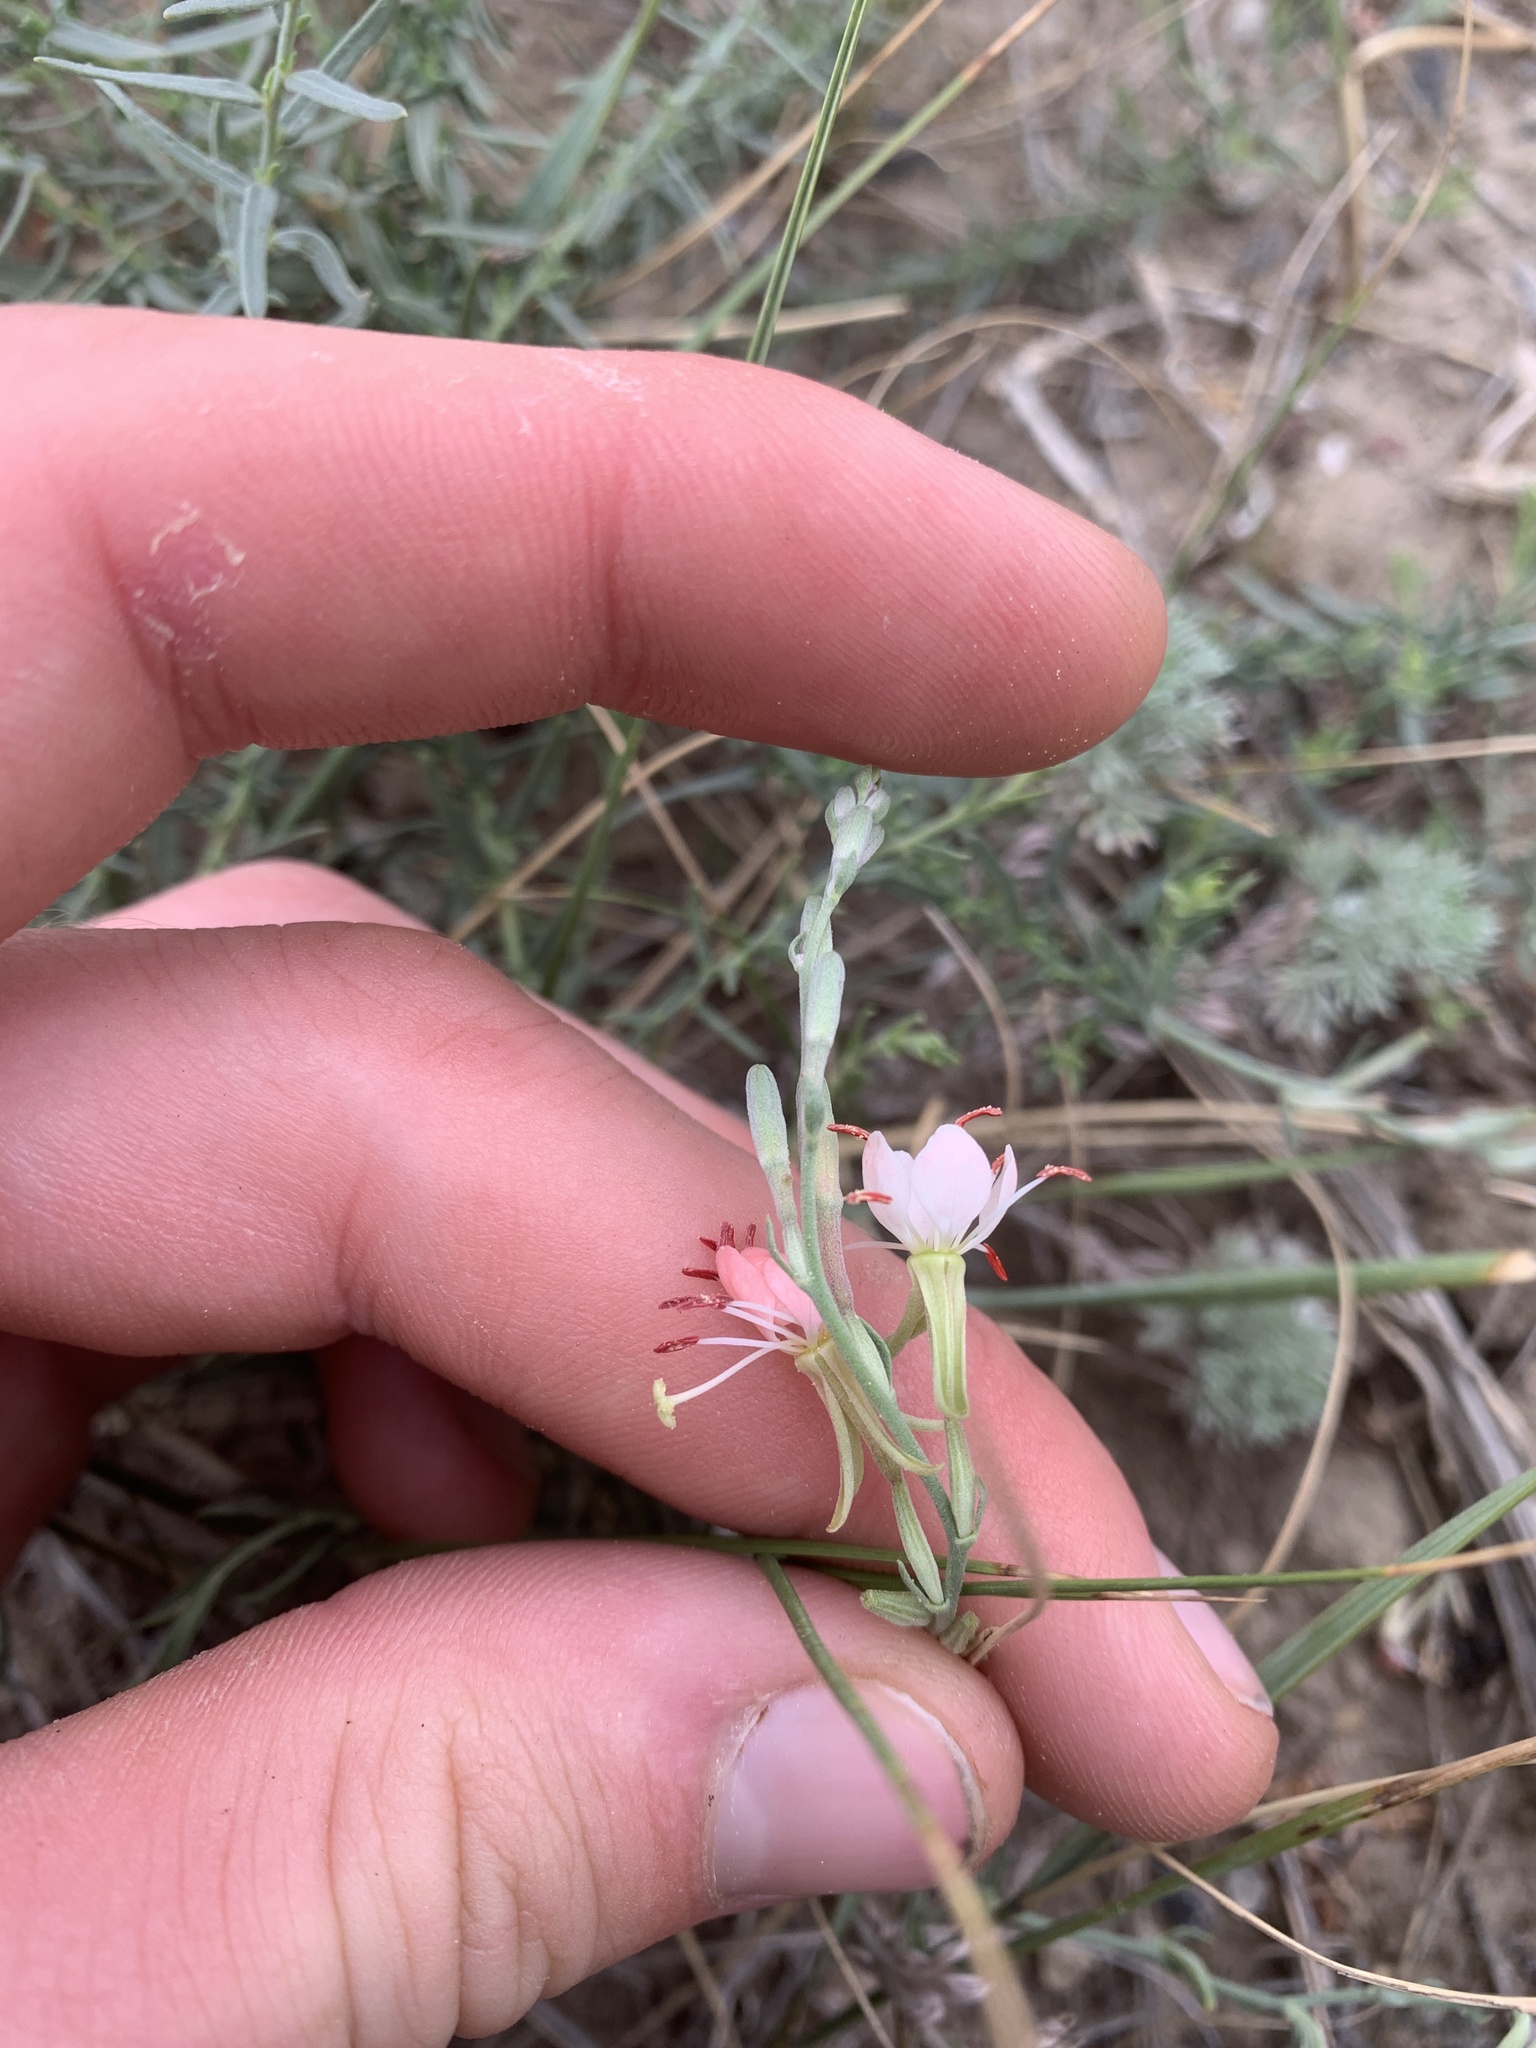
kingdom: Plantae
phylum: Tracheophyta
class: Magnoliopsida
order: Myrtales
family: Onagraceae
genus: Oenothera
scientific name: Oenothera suffrutescens
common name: Scarlet beeblossom
